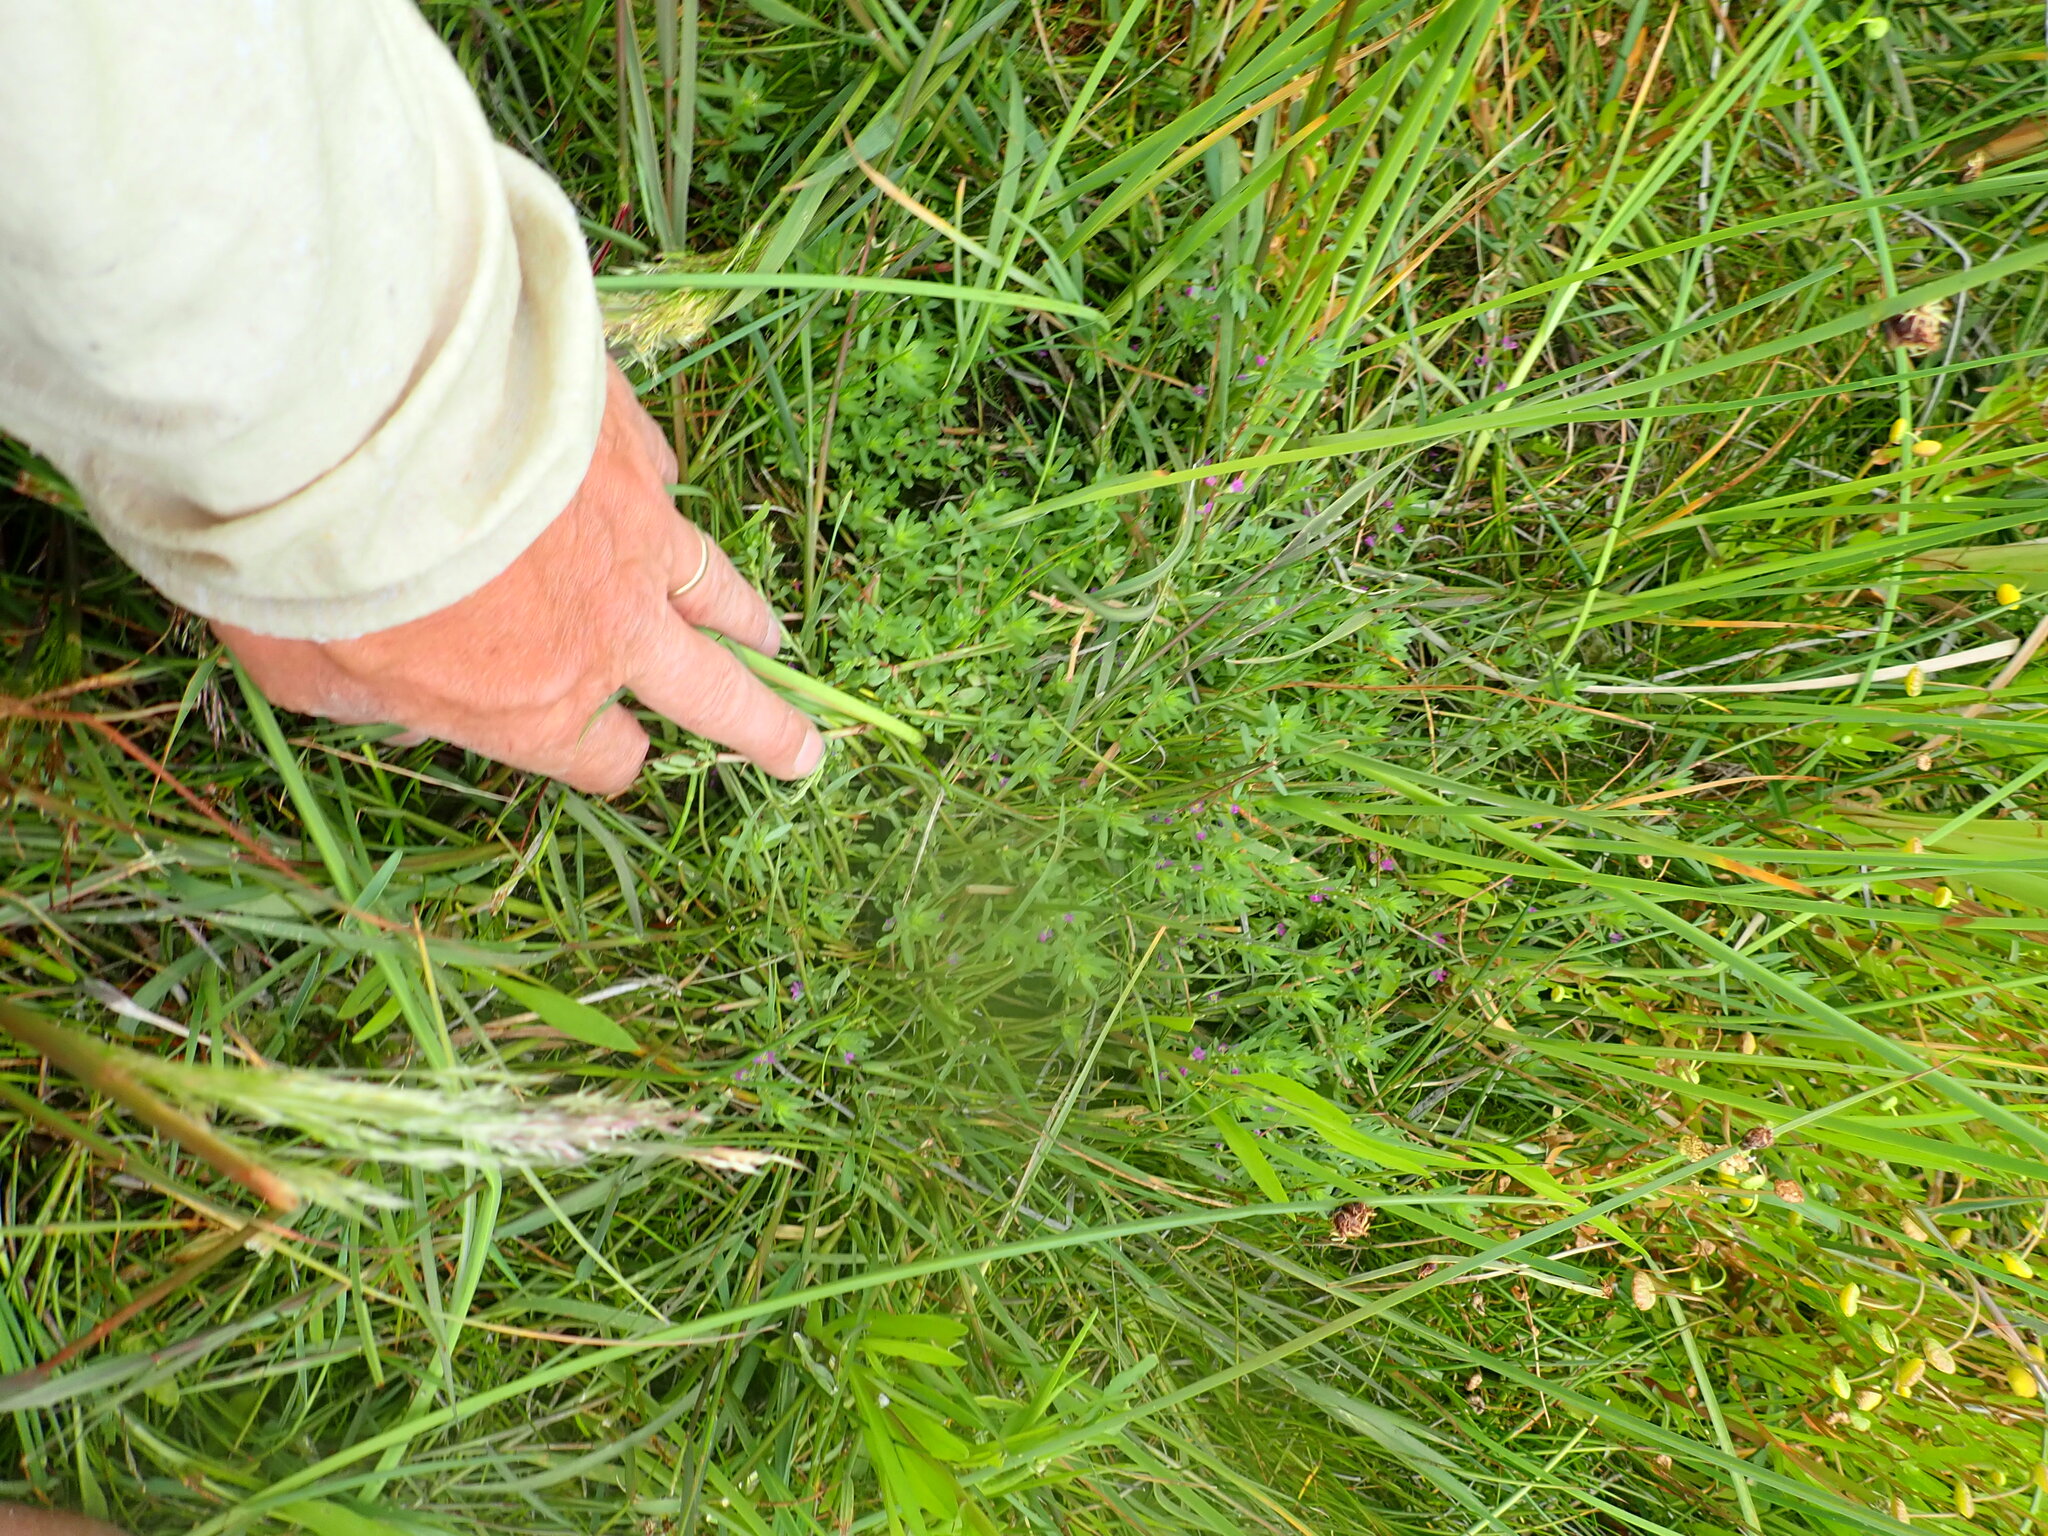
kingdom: Plantae
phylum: Tracheophyta
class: Magnoliopsida
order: Myrtales
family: Lythraceae
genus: Lythrum
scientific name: Lythrum hyssopifolia
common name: Grass-poly
